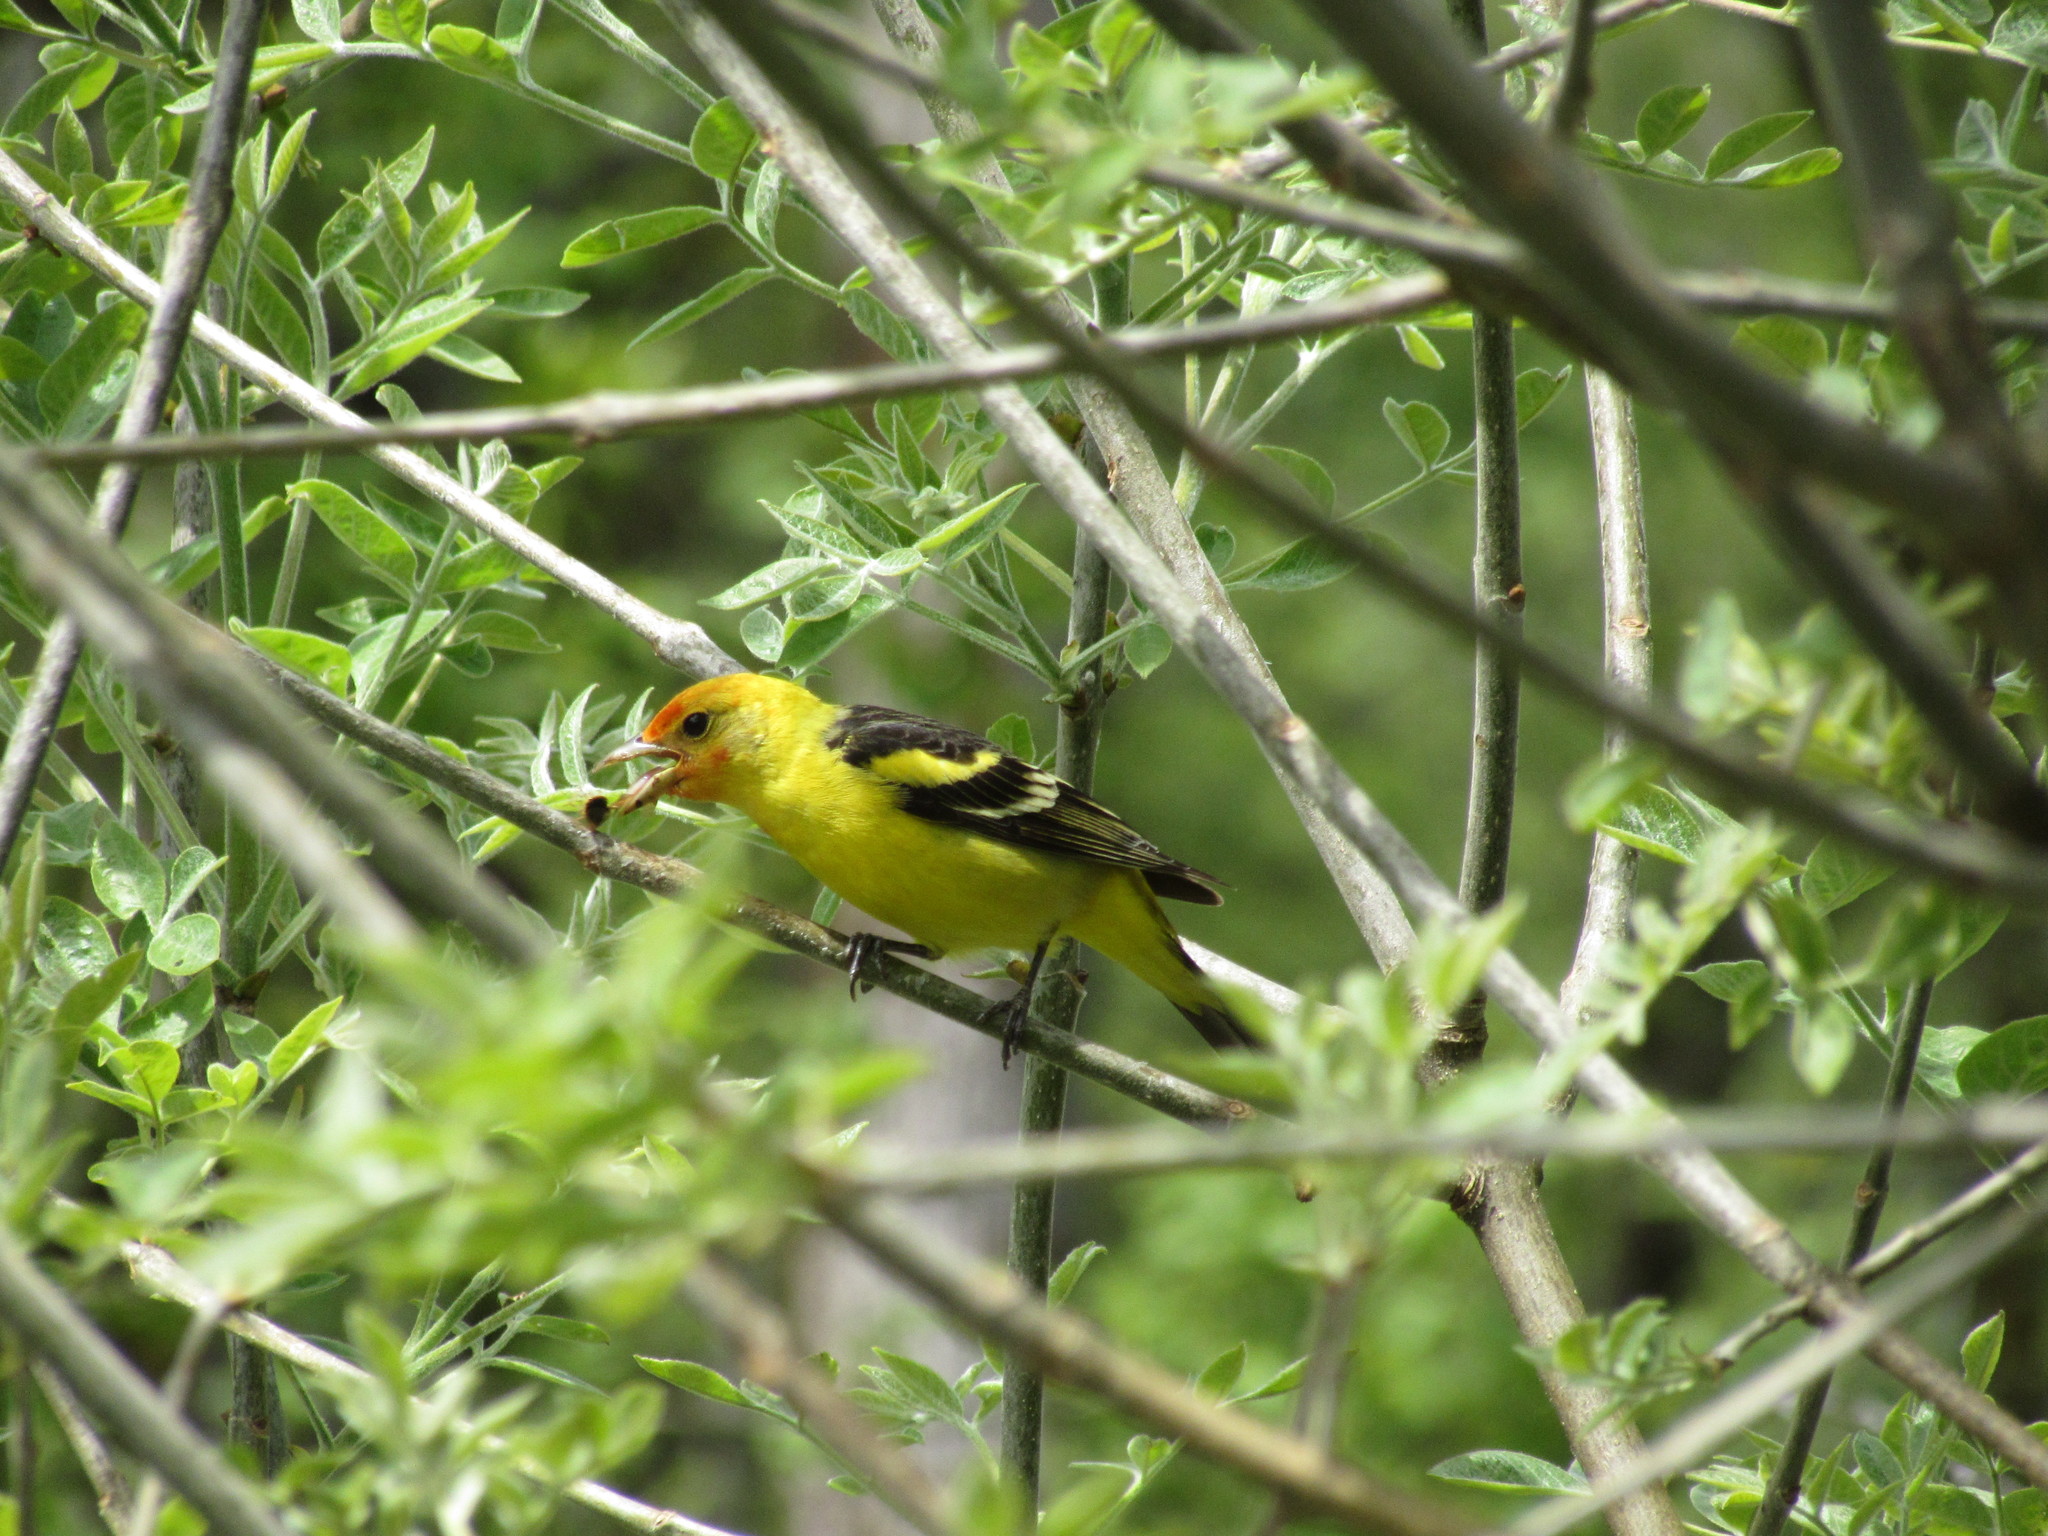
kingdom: Animalia
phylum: Chordata
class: Aves
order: Passeriformes
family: Cardinalidae
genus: Piranga
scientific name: Piranga ludoviciana
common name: Western tanager
